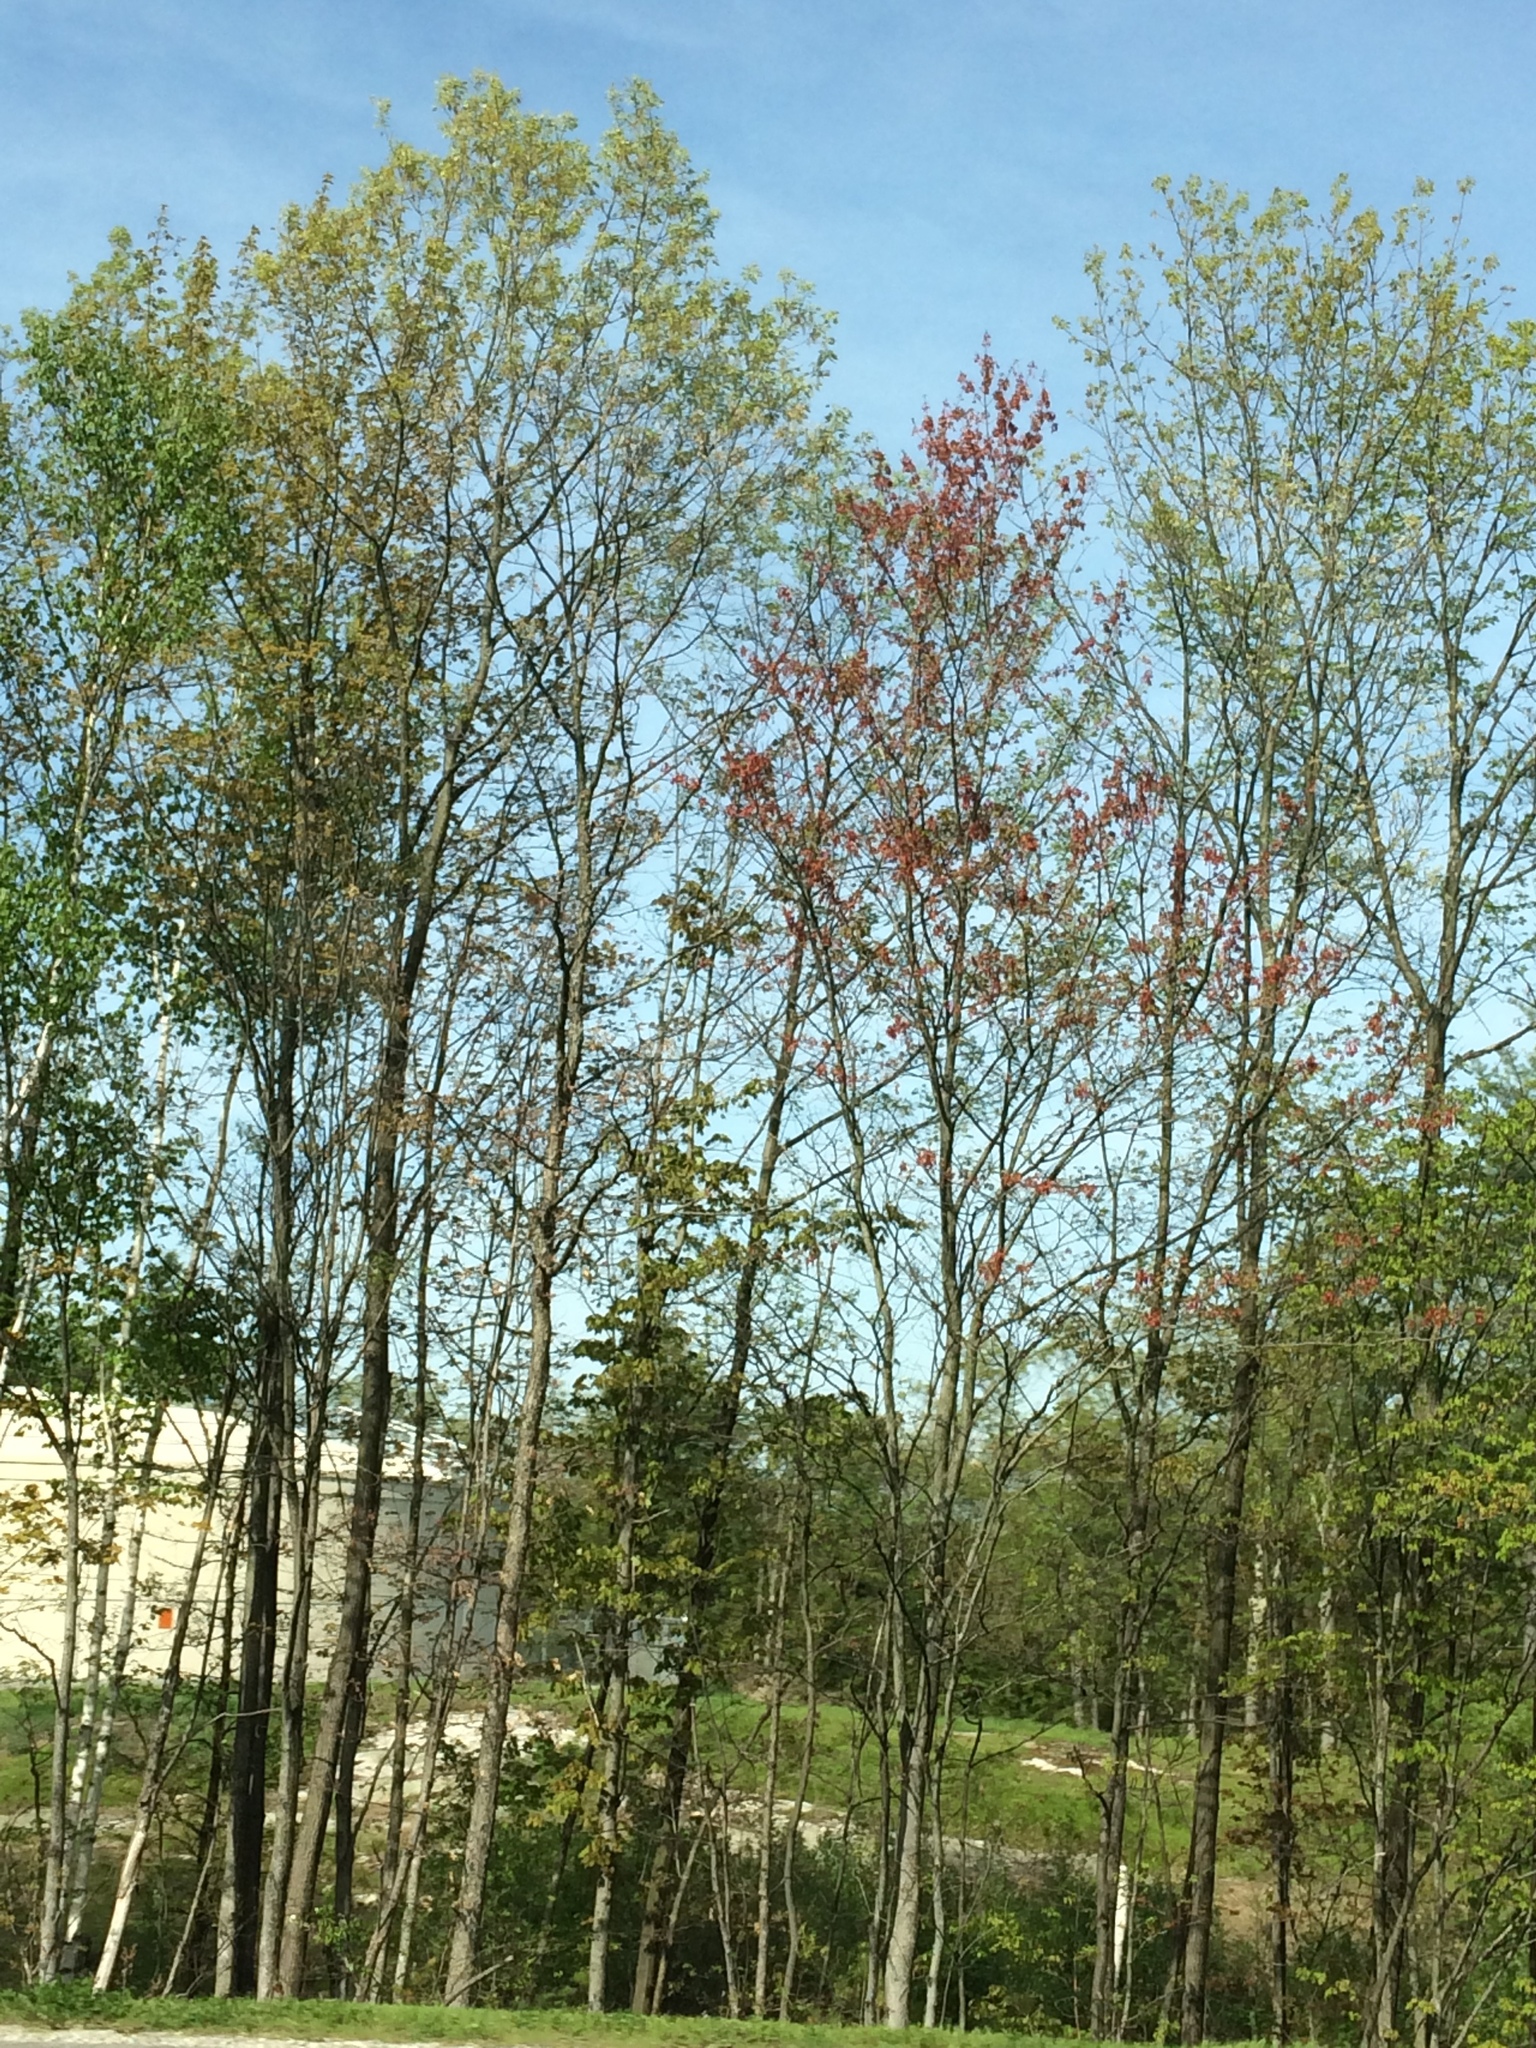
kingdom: Plantae
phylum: Tracheophyta
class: Magnoliopsida
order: Sapindales
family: Sapindaceae
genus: Acer
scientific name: Acer rubrum
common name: Red maple
